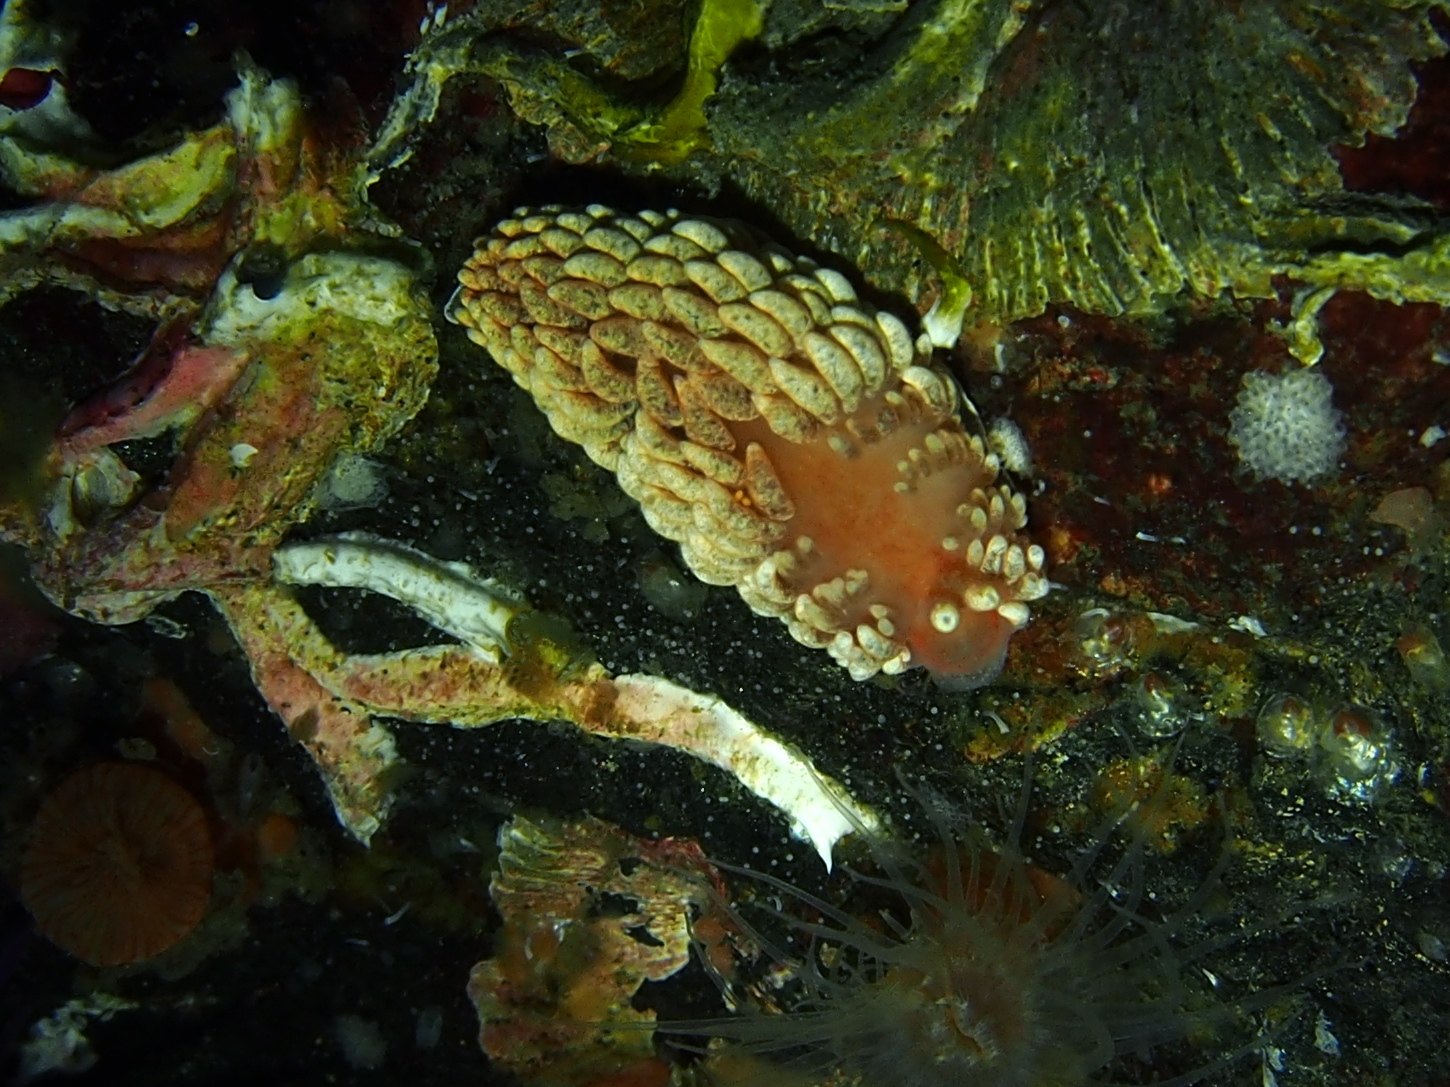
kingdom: Animalia
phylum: Mollusca
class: Gastropoda
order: Nudibranchia
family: Aeolidiidae
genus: Aeolidiella
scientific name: Aeolidiella glauca
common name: Orange-brown aeolid
